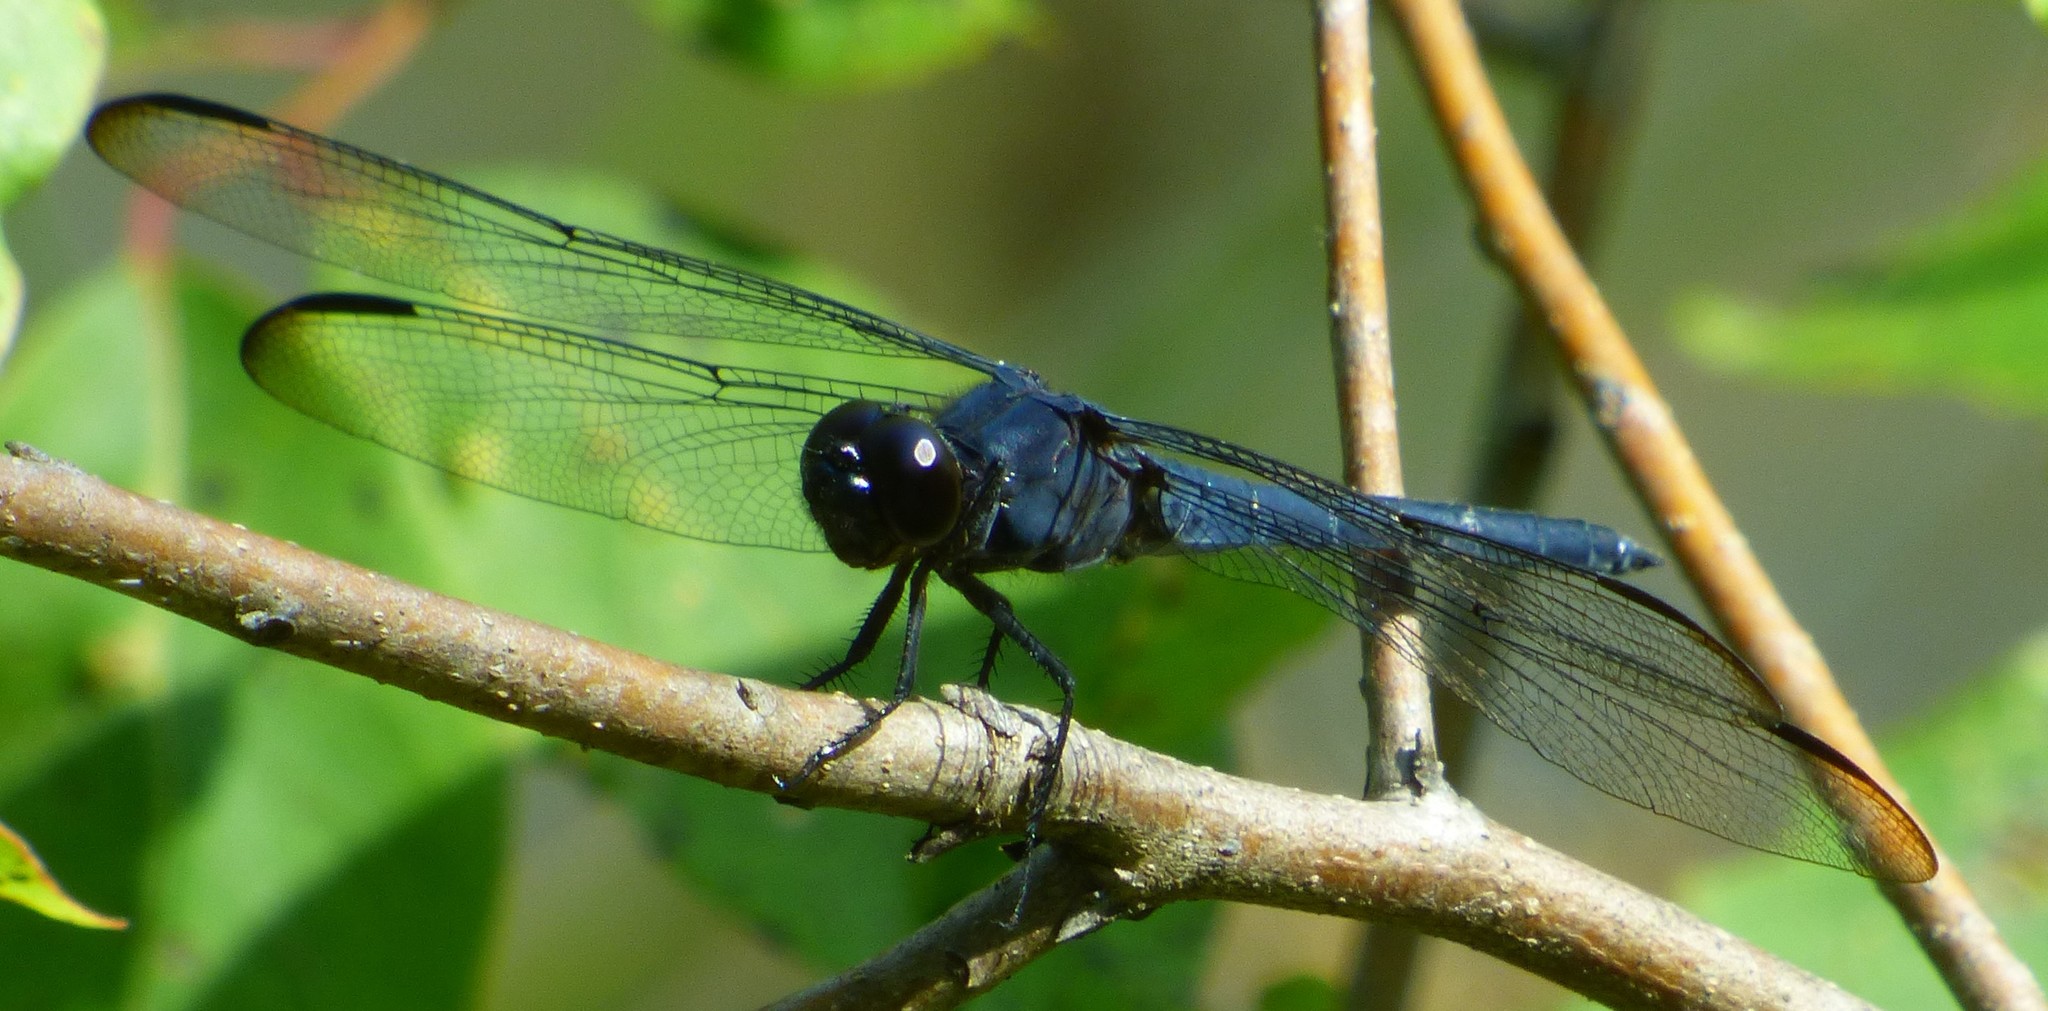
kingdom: Animalia
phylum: Arthropoda
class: Insecta
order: Odonata
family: Libellulidae
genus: Libellula
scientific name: Libellula incesta
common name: Slaty skimmer
